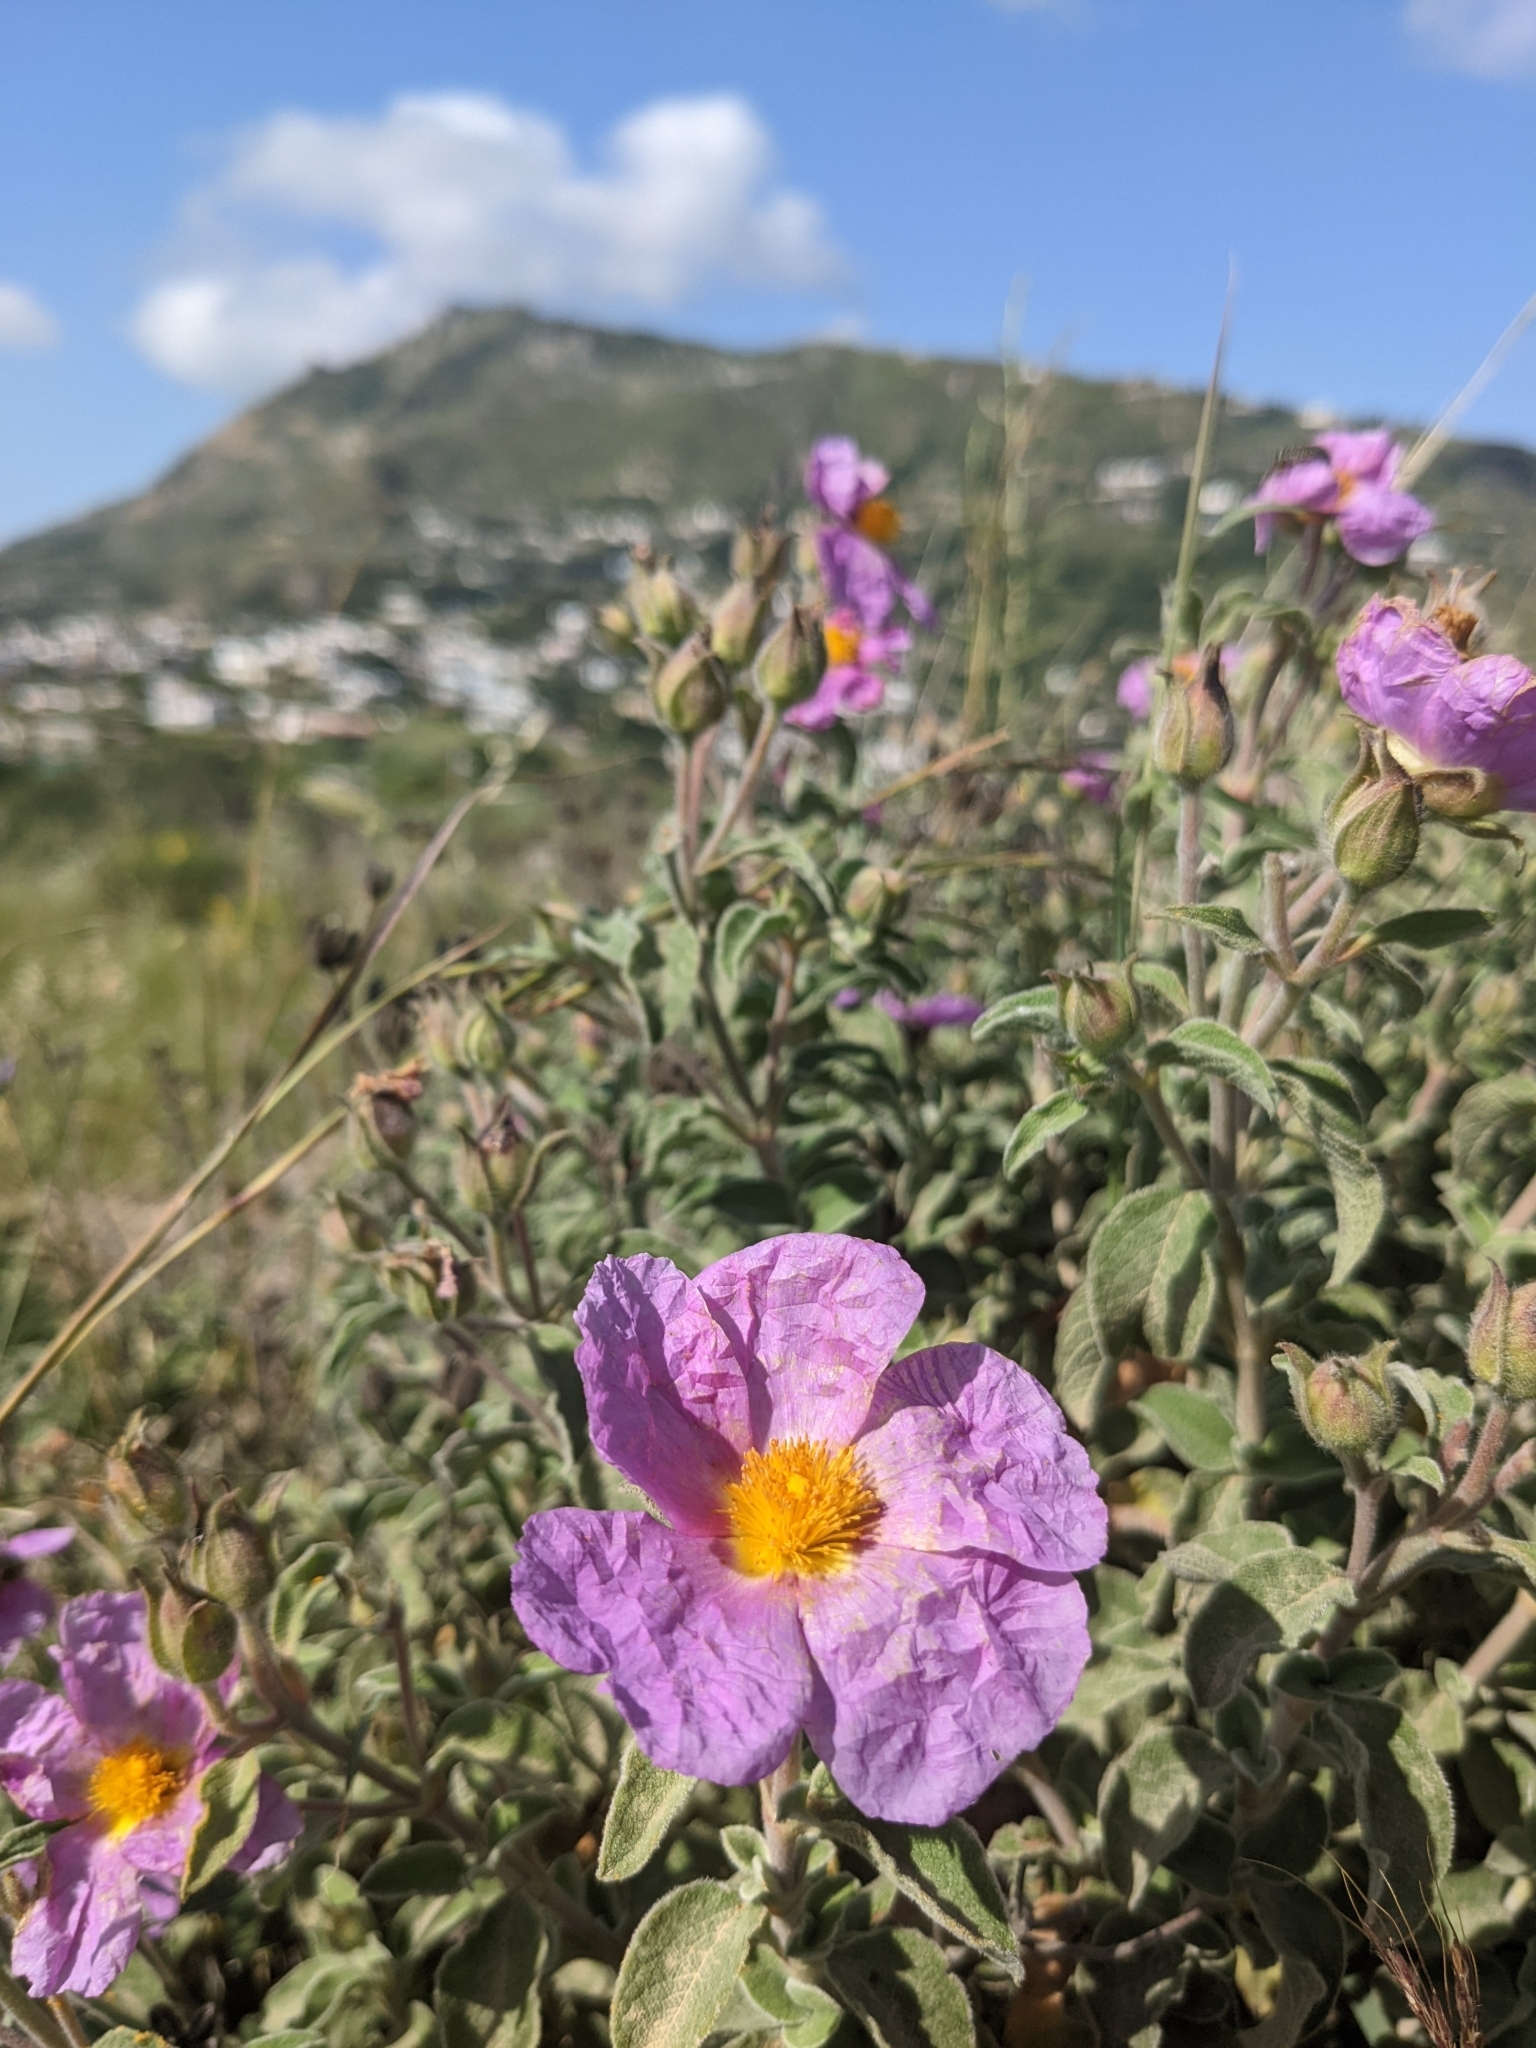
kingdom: Plantae
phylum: Tracheophyta
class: Magnoliopsida
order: Malvales
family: Cistaceae
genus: Cistus
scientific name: Cistus creticus
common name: Cretan rockrose
